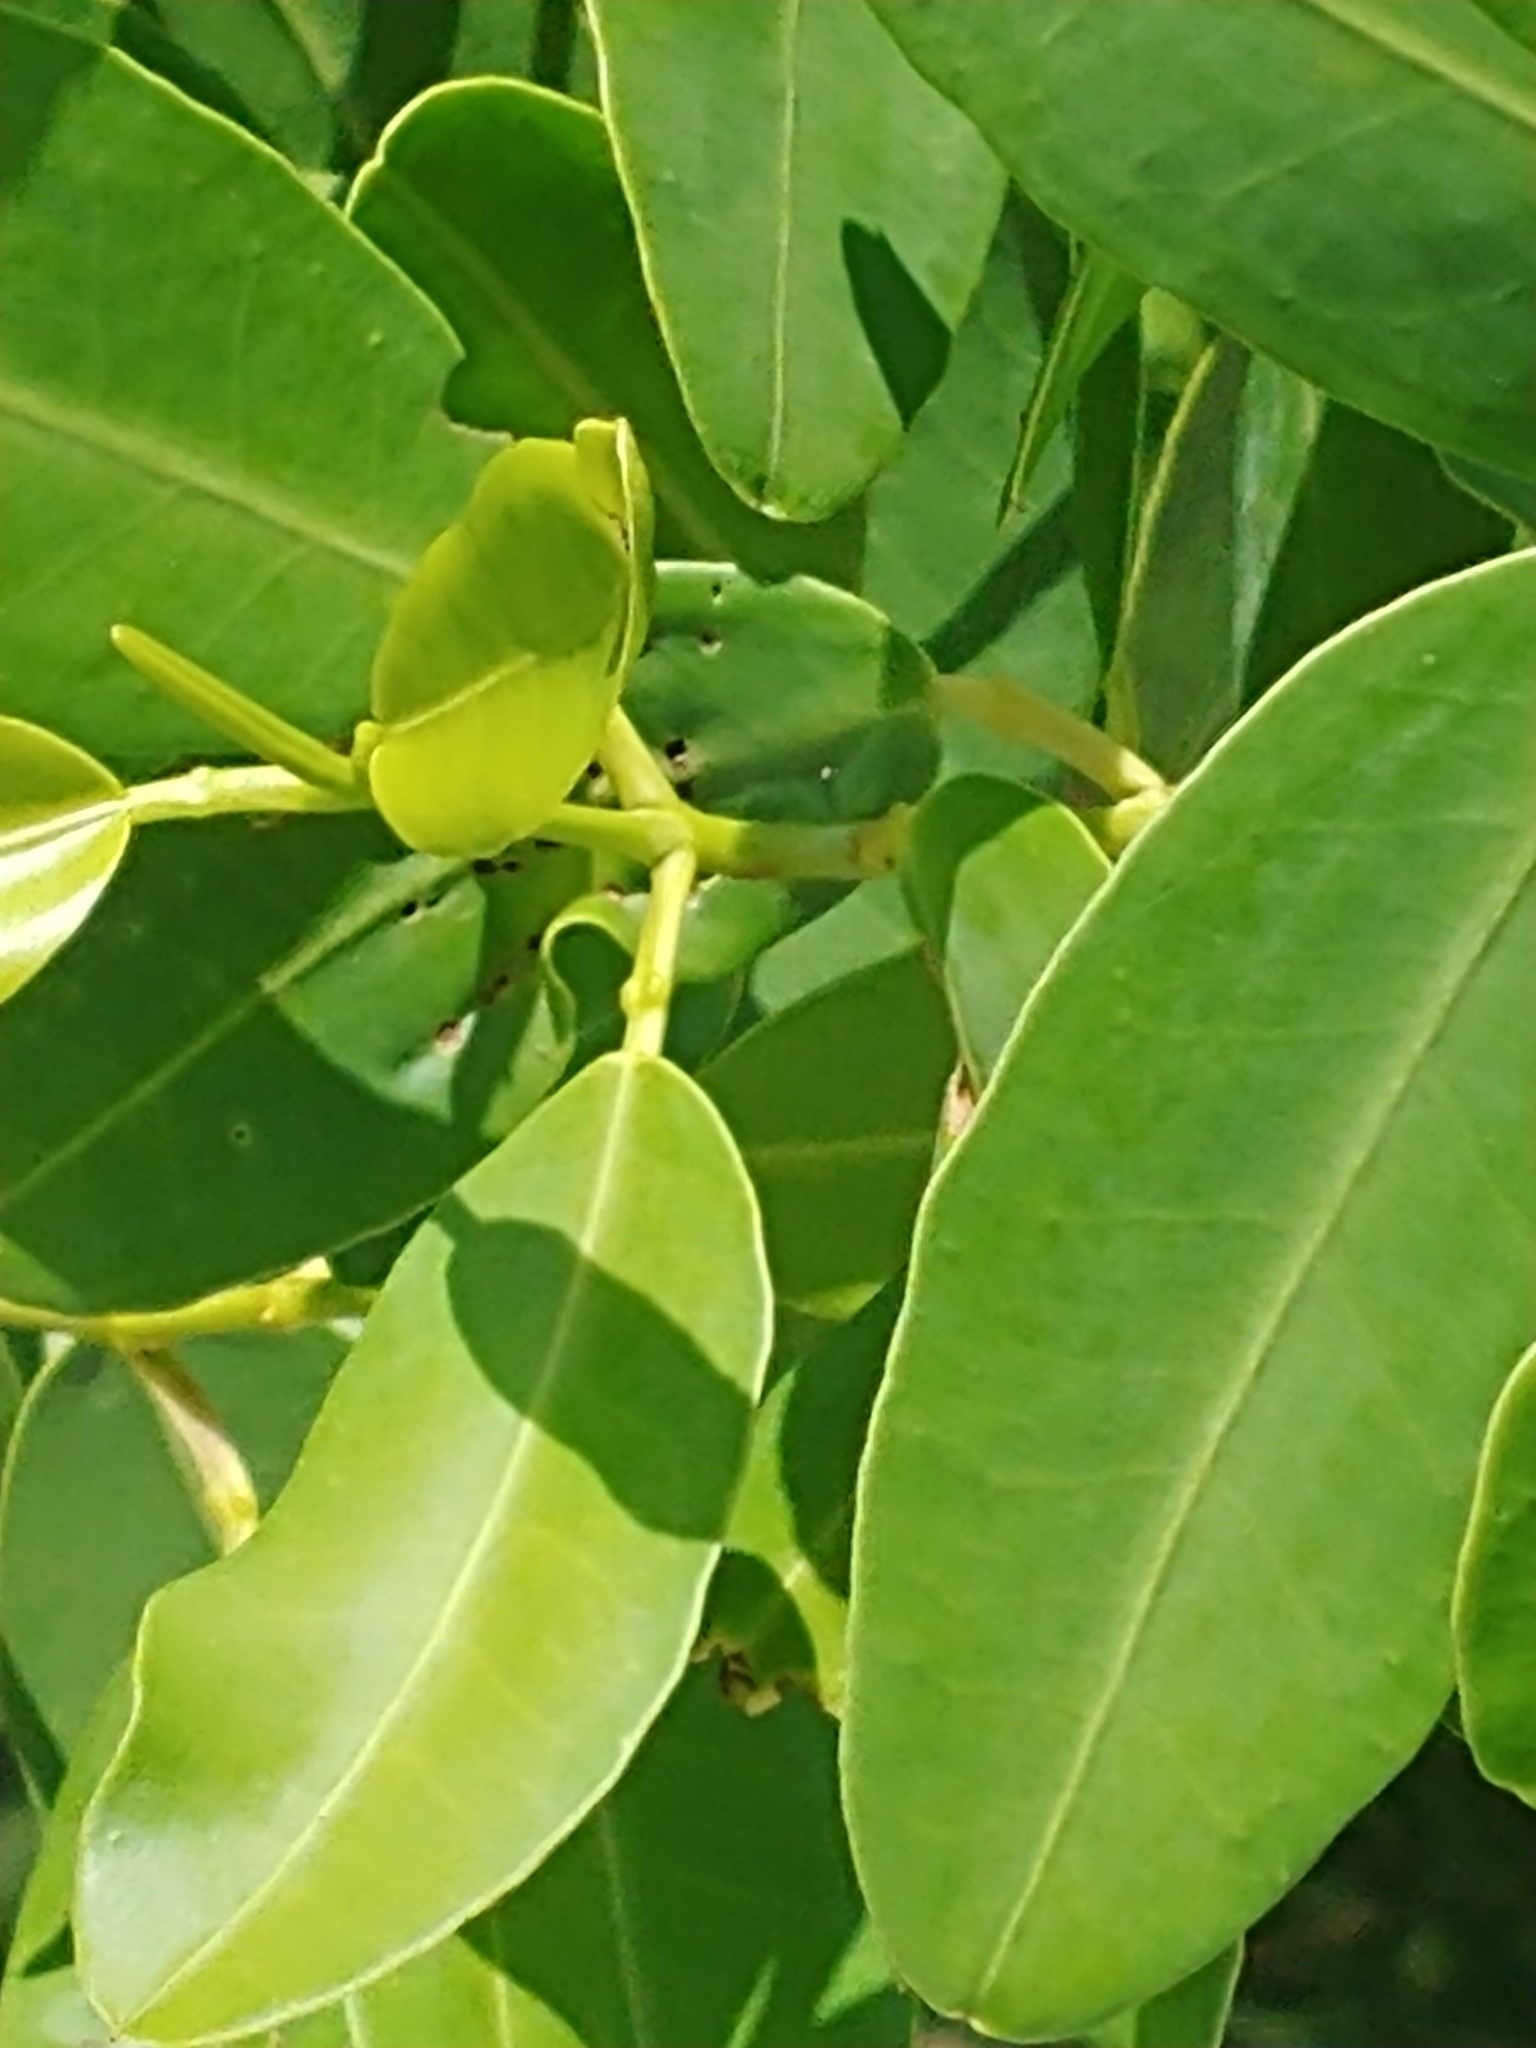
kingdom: Plantae
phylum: Tracheophyta
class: Magnoliopsida
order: Myrtales
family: Combretaceae
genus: Laguncularia
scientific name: Laguncularia racemosa
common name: White mangrove
